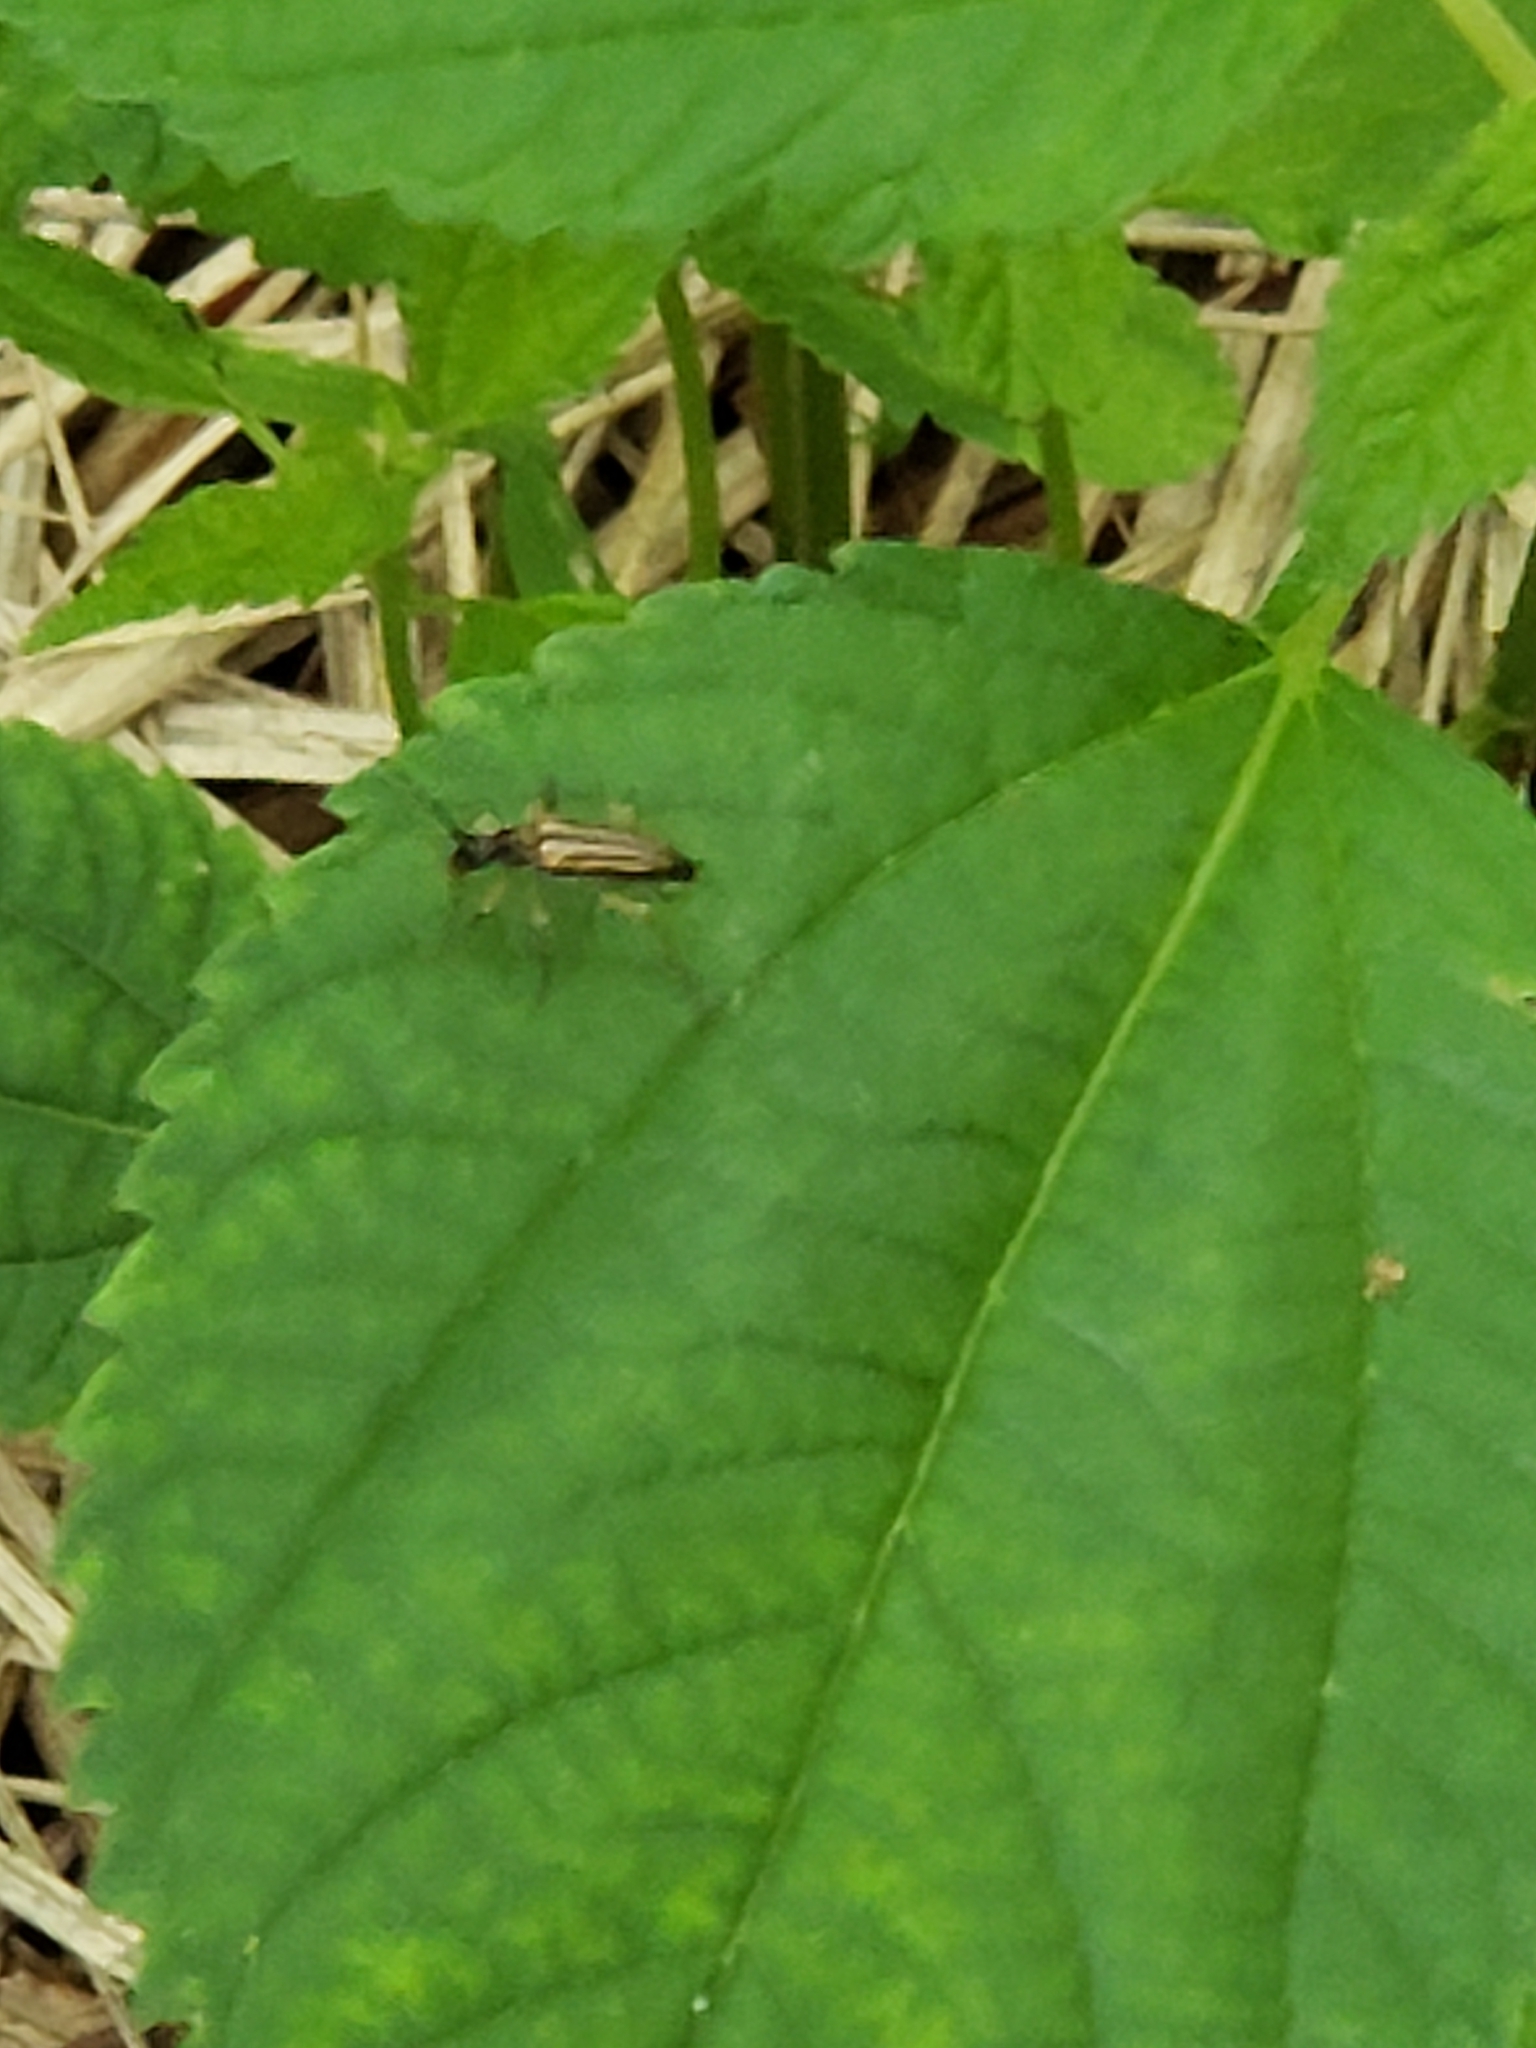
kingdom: Animalia
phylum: Arthropoda
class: Insecta
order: Coleoptera
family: Cerambycidae
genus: Analeptura
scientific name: Analeptura lineola
